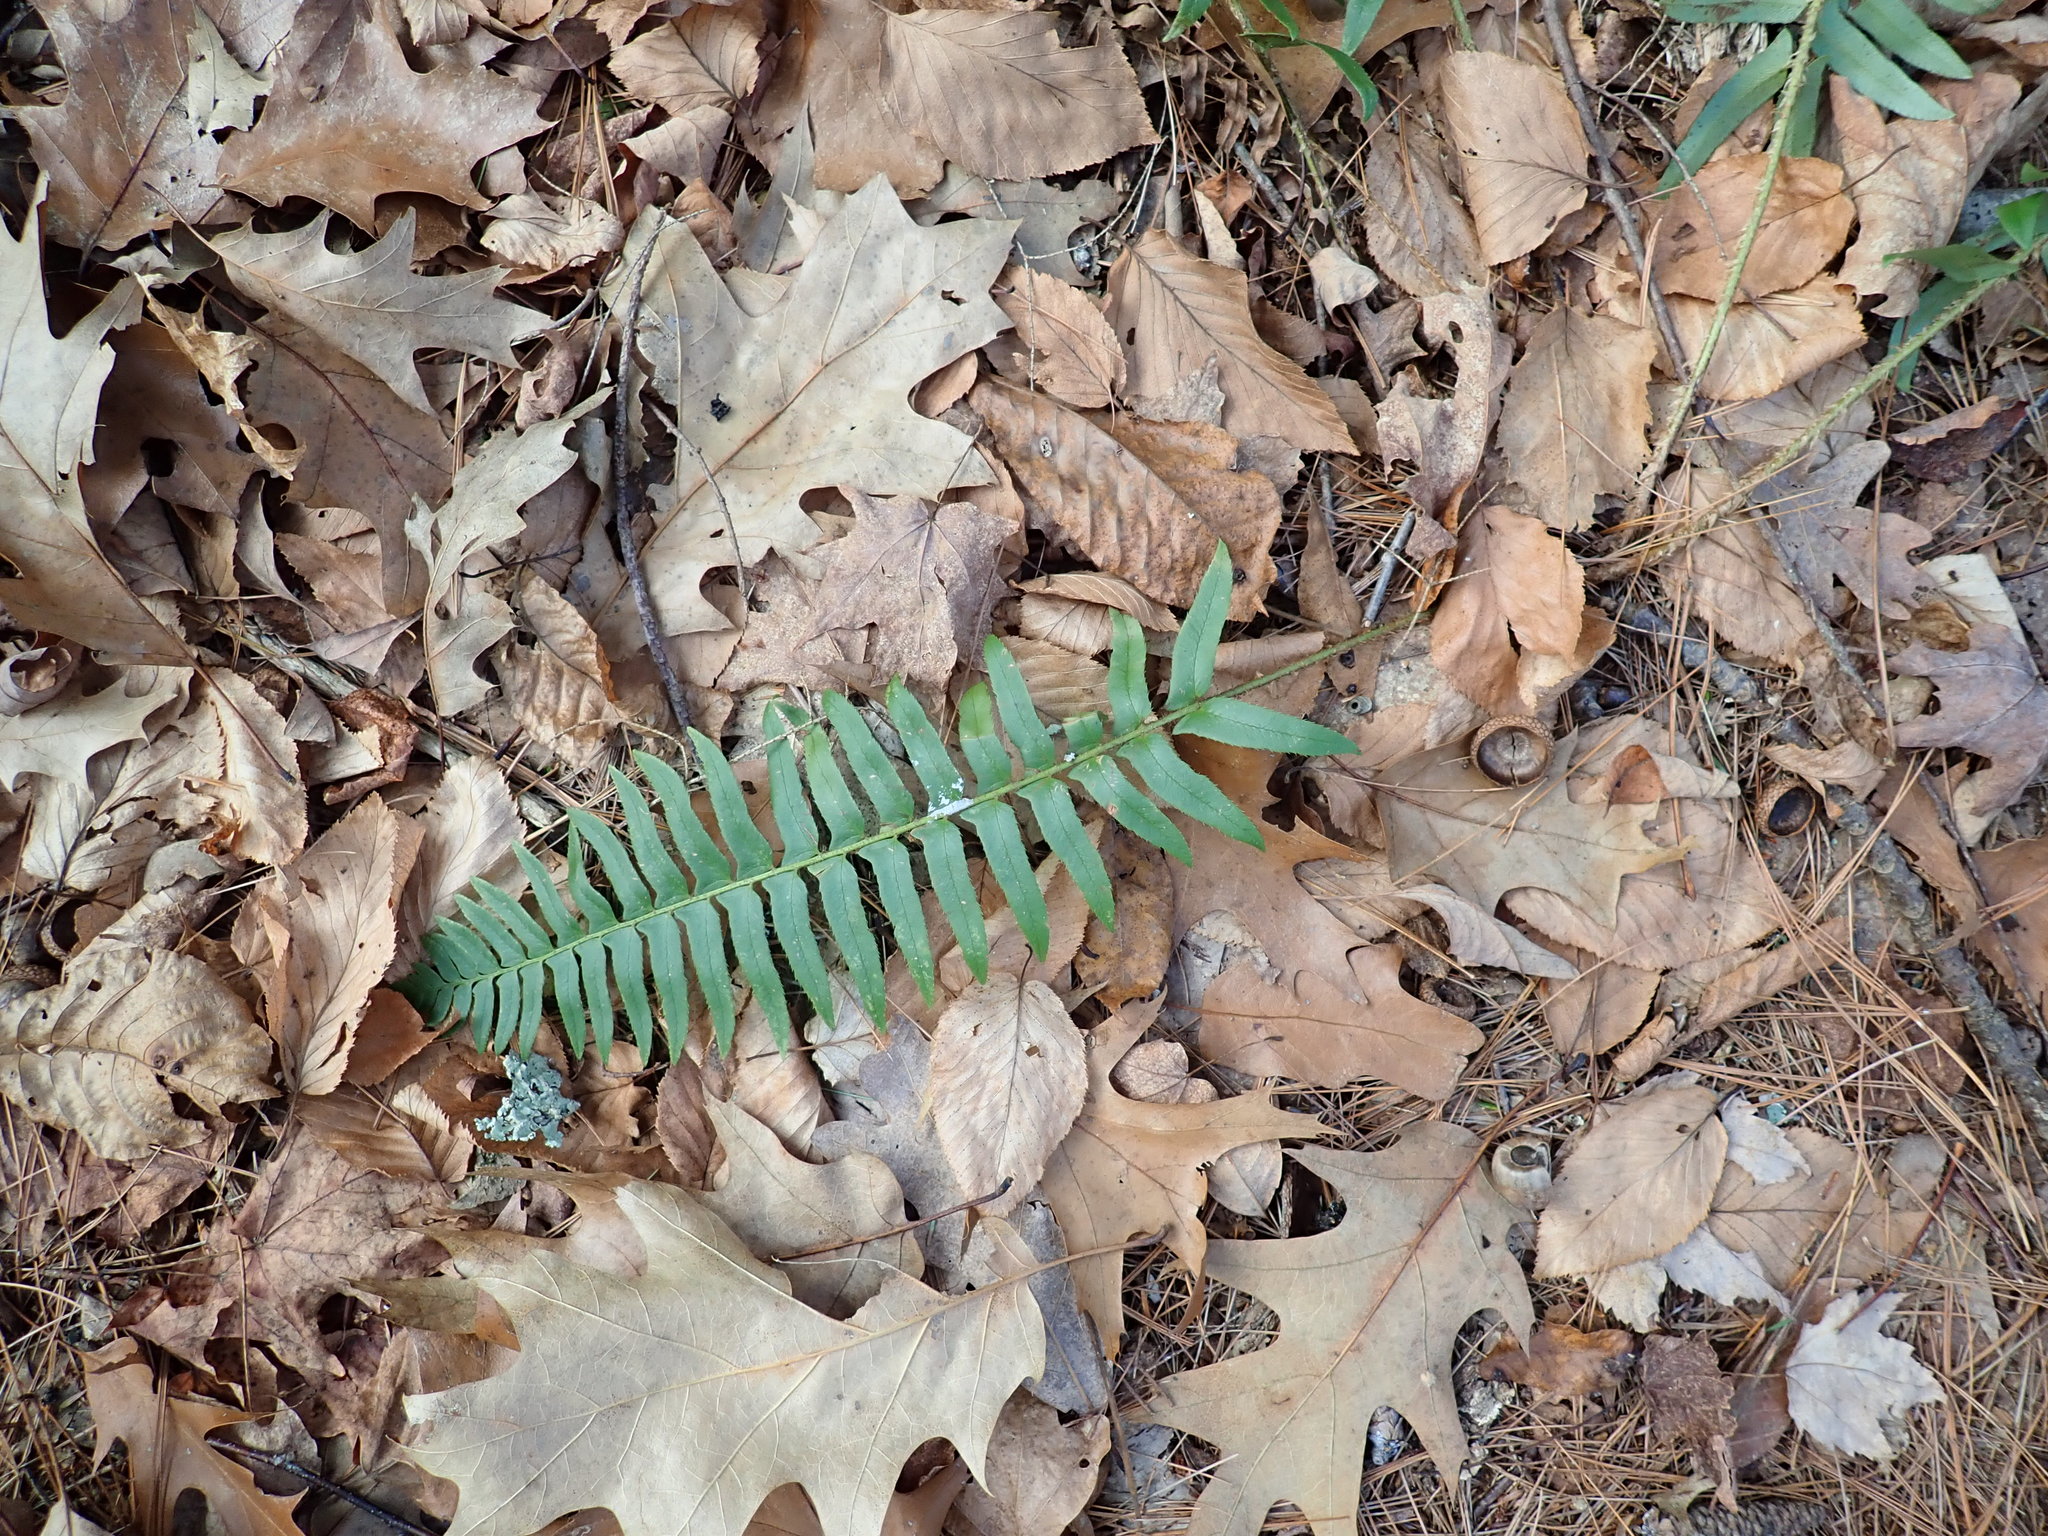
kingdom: Plantae
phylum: Tracheophyta
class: Polypodiopsida
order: Polypodiales
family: Dryopteridaceae
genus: Polystichum
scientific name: Polystichum acrostichoides
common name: Christmas fern
